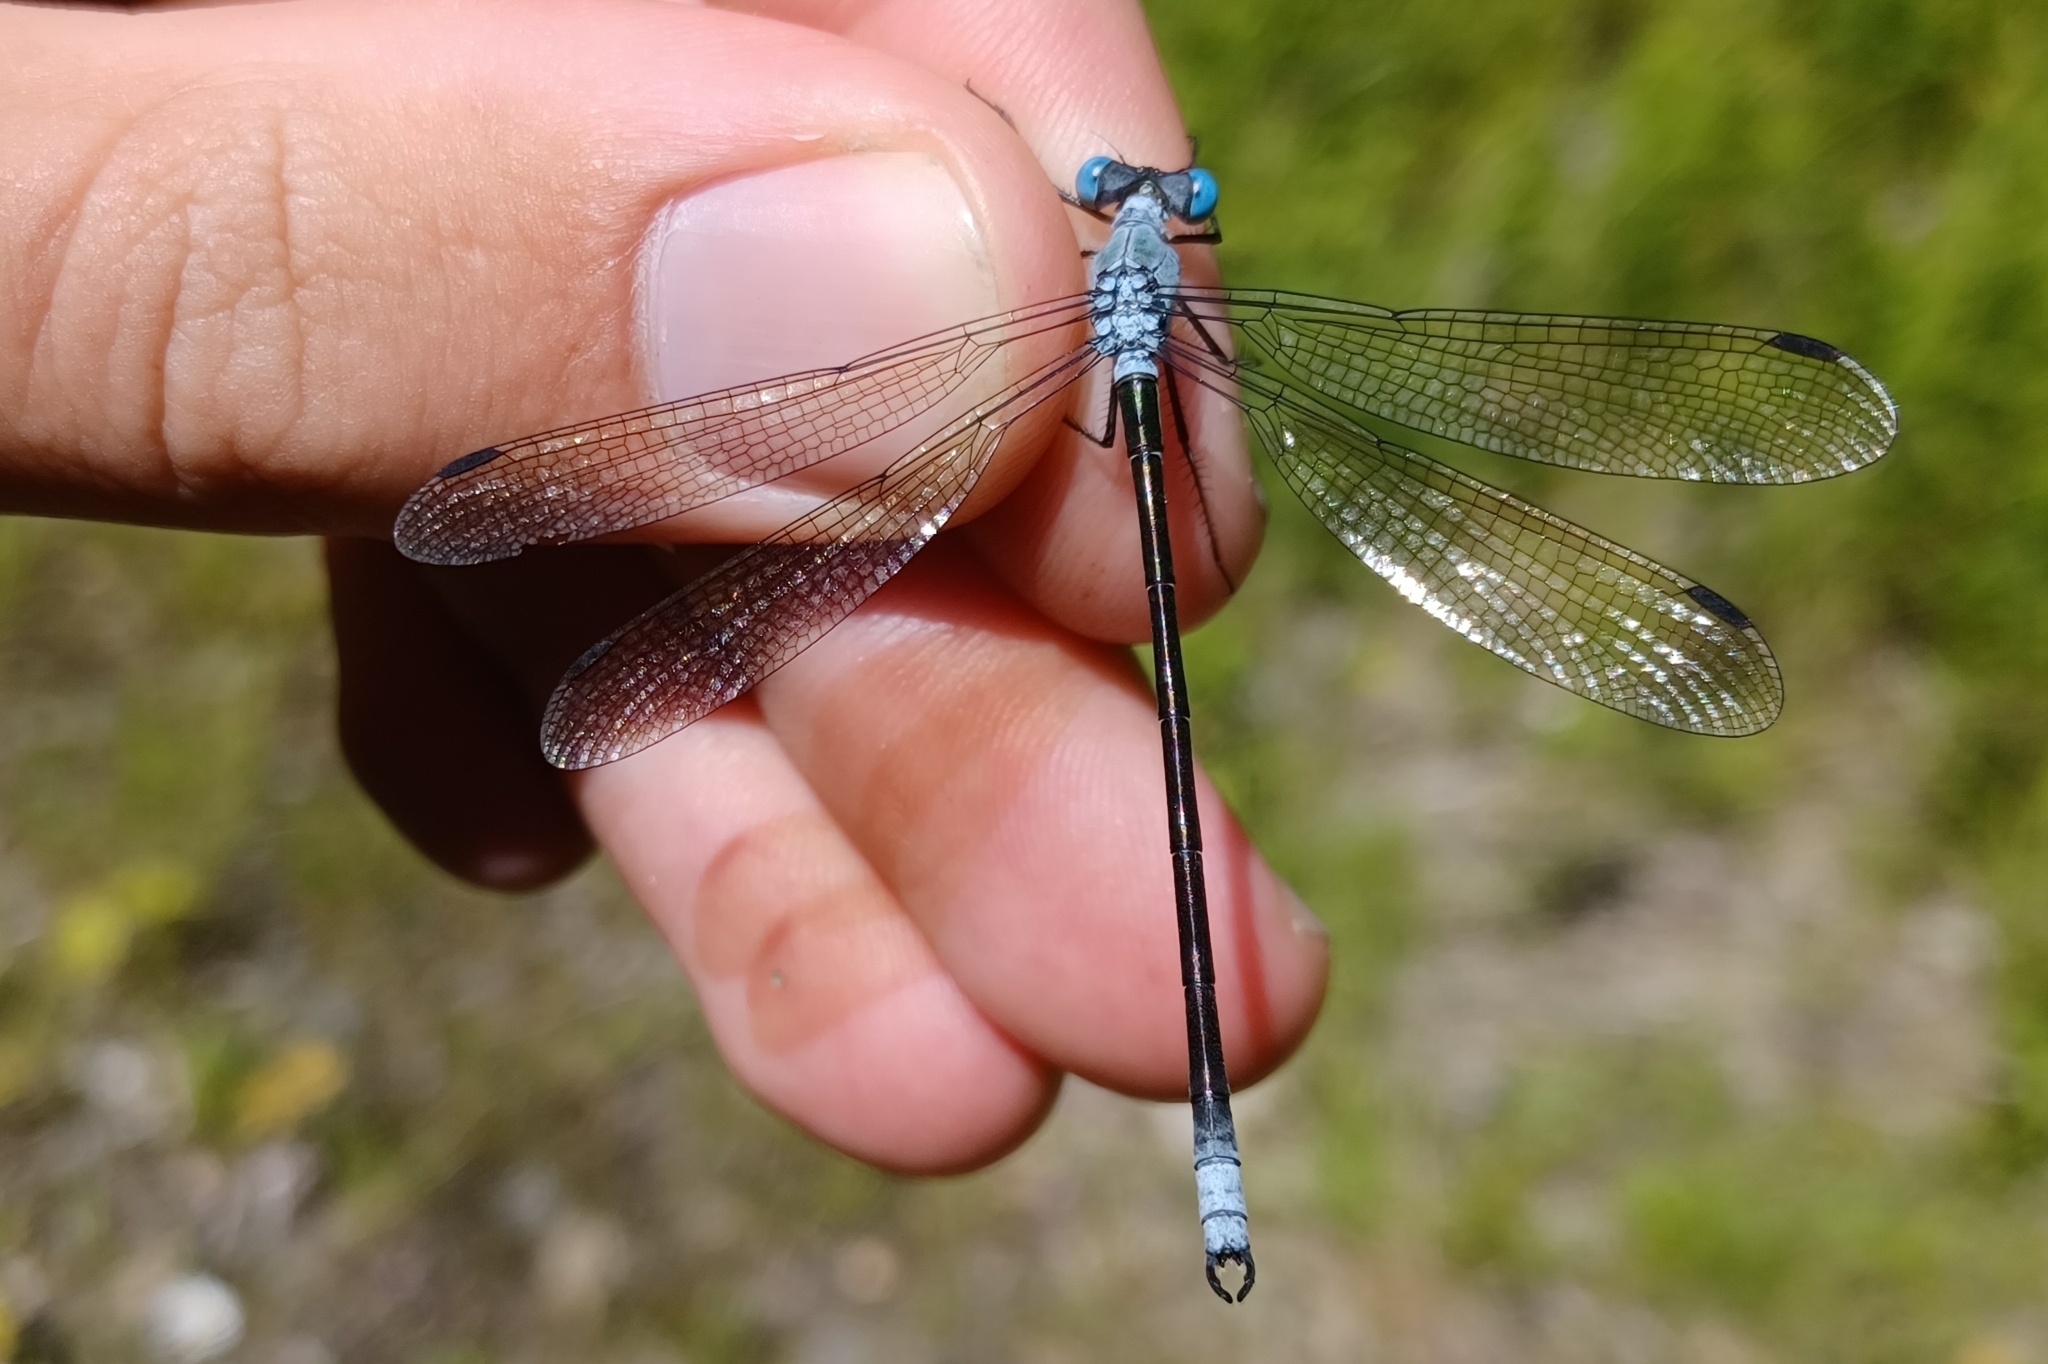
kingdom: Animalia
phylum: Arthropoda
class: Insecta
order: Odonata
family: Lestidae
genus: Lestes
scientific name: Lestes eurinus
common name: Amber-winged spreadwing
